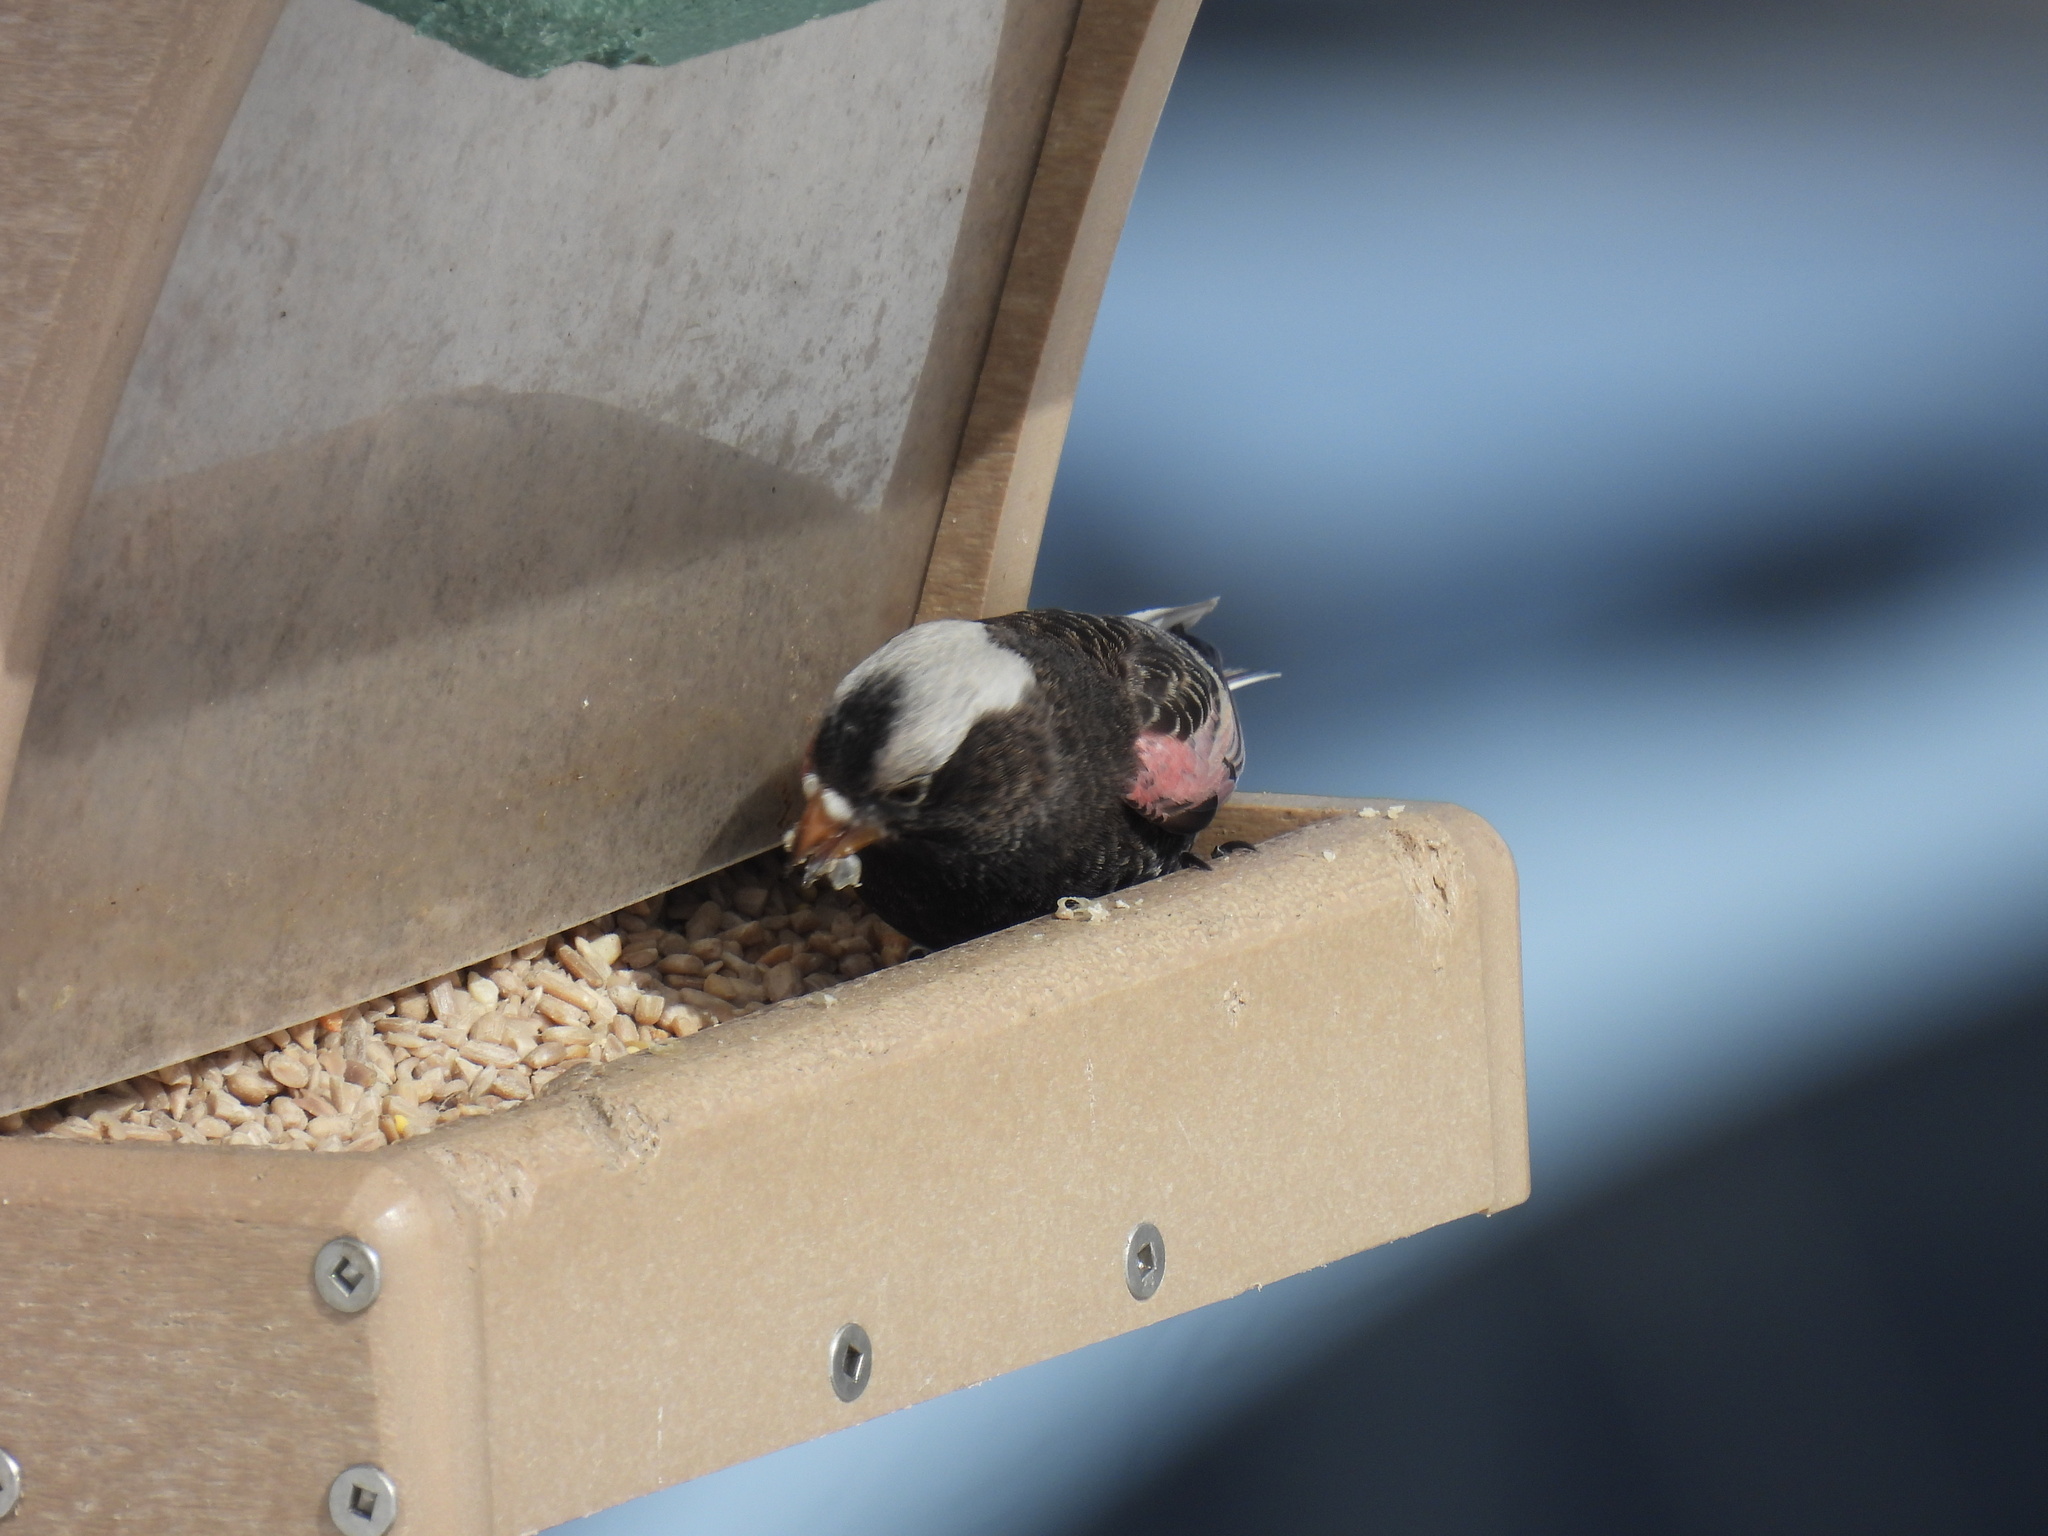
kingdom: Animalia
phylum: Chordata
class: Aves
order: Passeriformes
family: Fringillidae
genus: Leucosticte
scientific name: Leucosticte atrata
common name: Black rosy-finch
